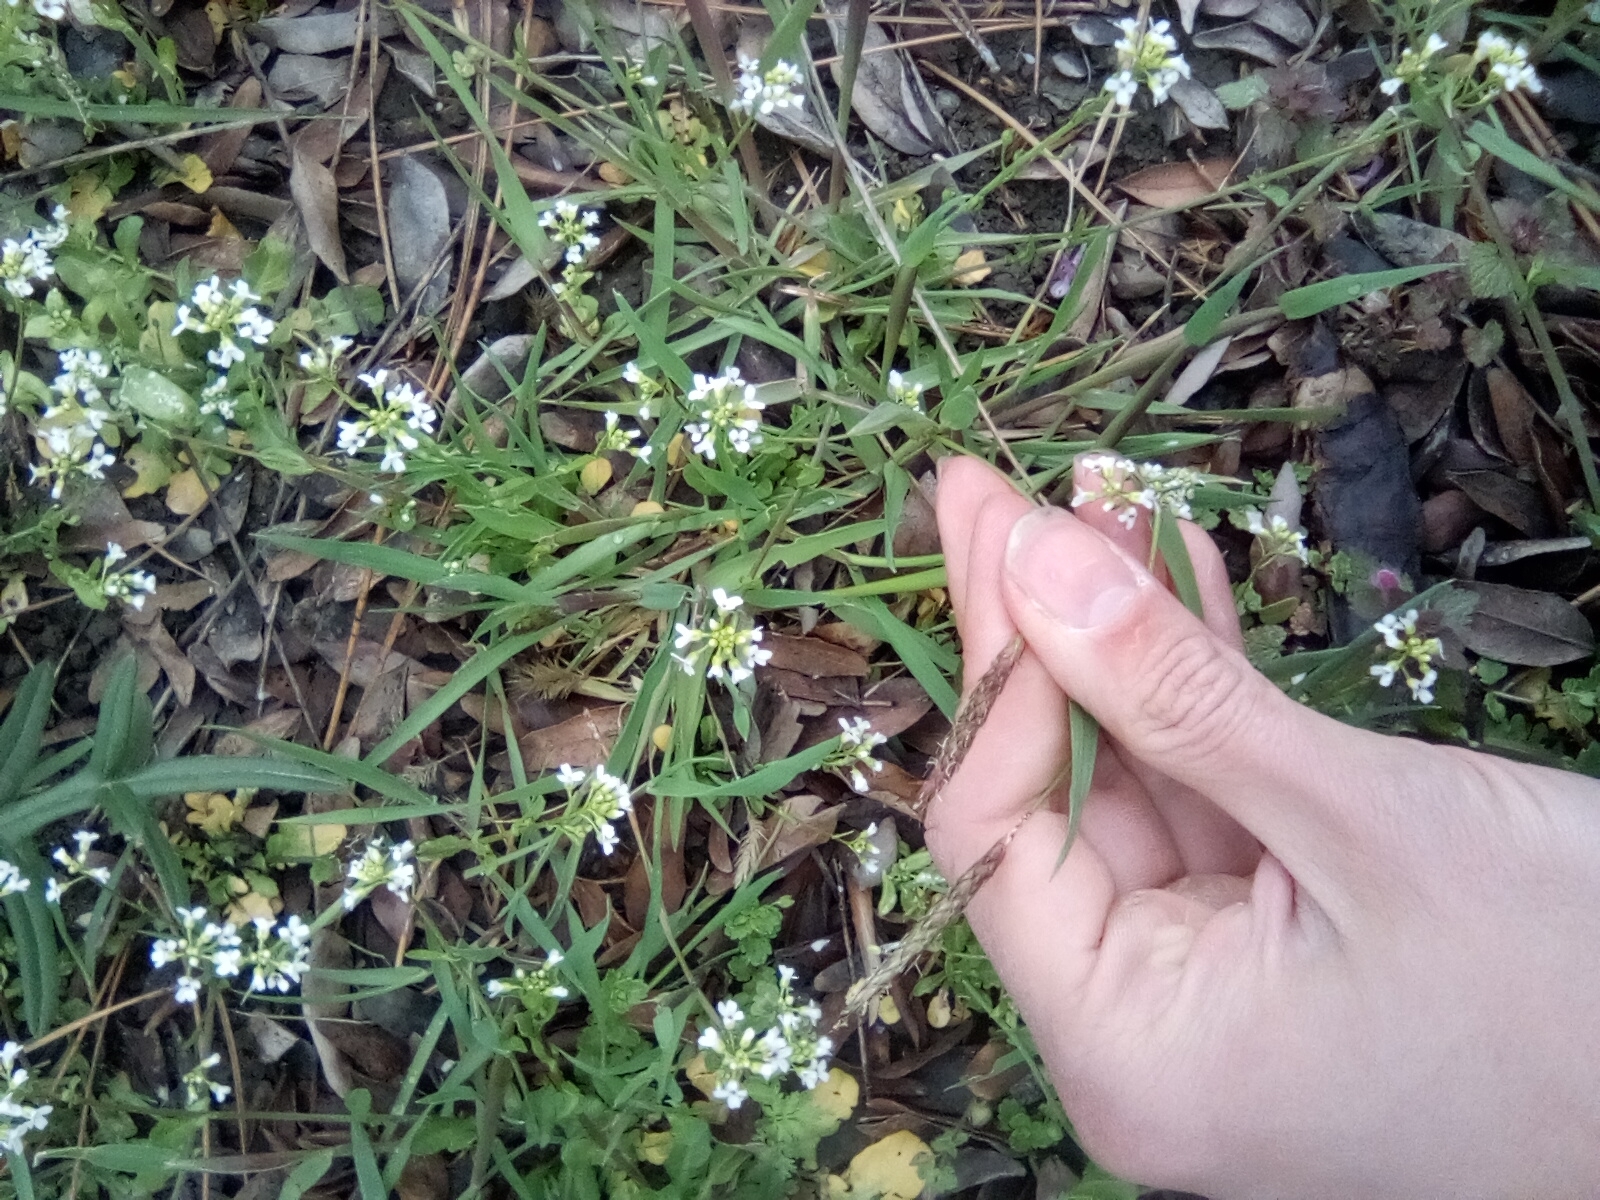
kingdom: Plantae
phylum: Tracheophyta
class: Liliopsida
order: Poales
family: Poaceae
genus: Alopecurus
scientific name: Alopecurus myosuroides
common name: Black-grass
